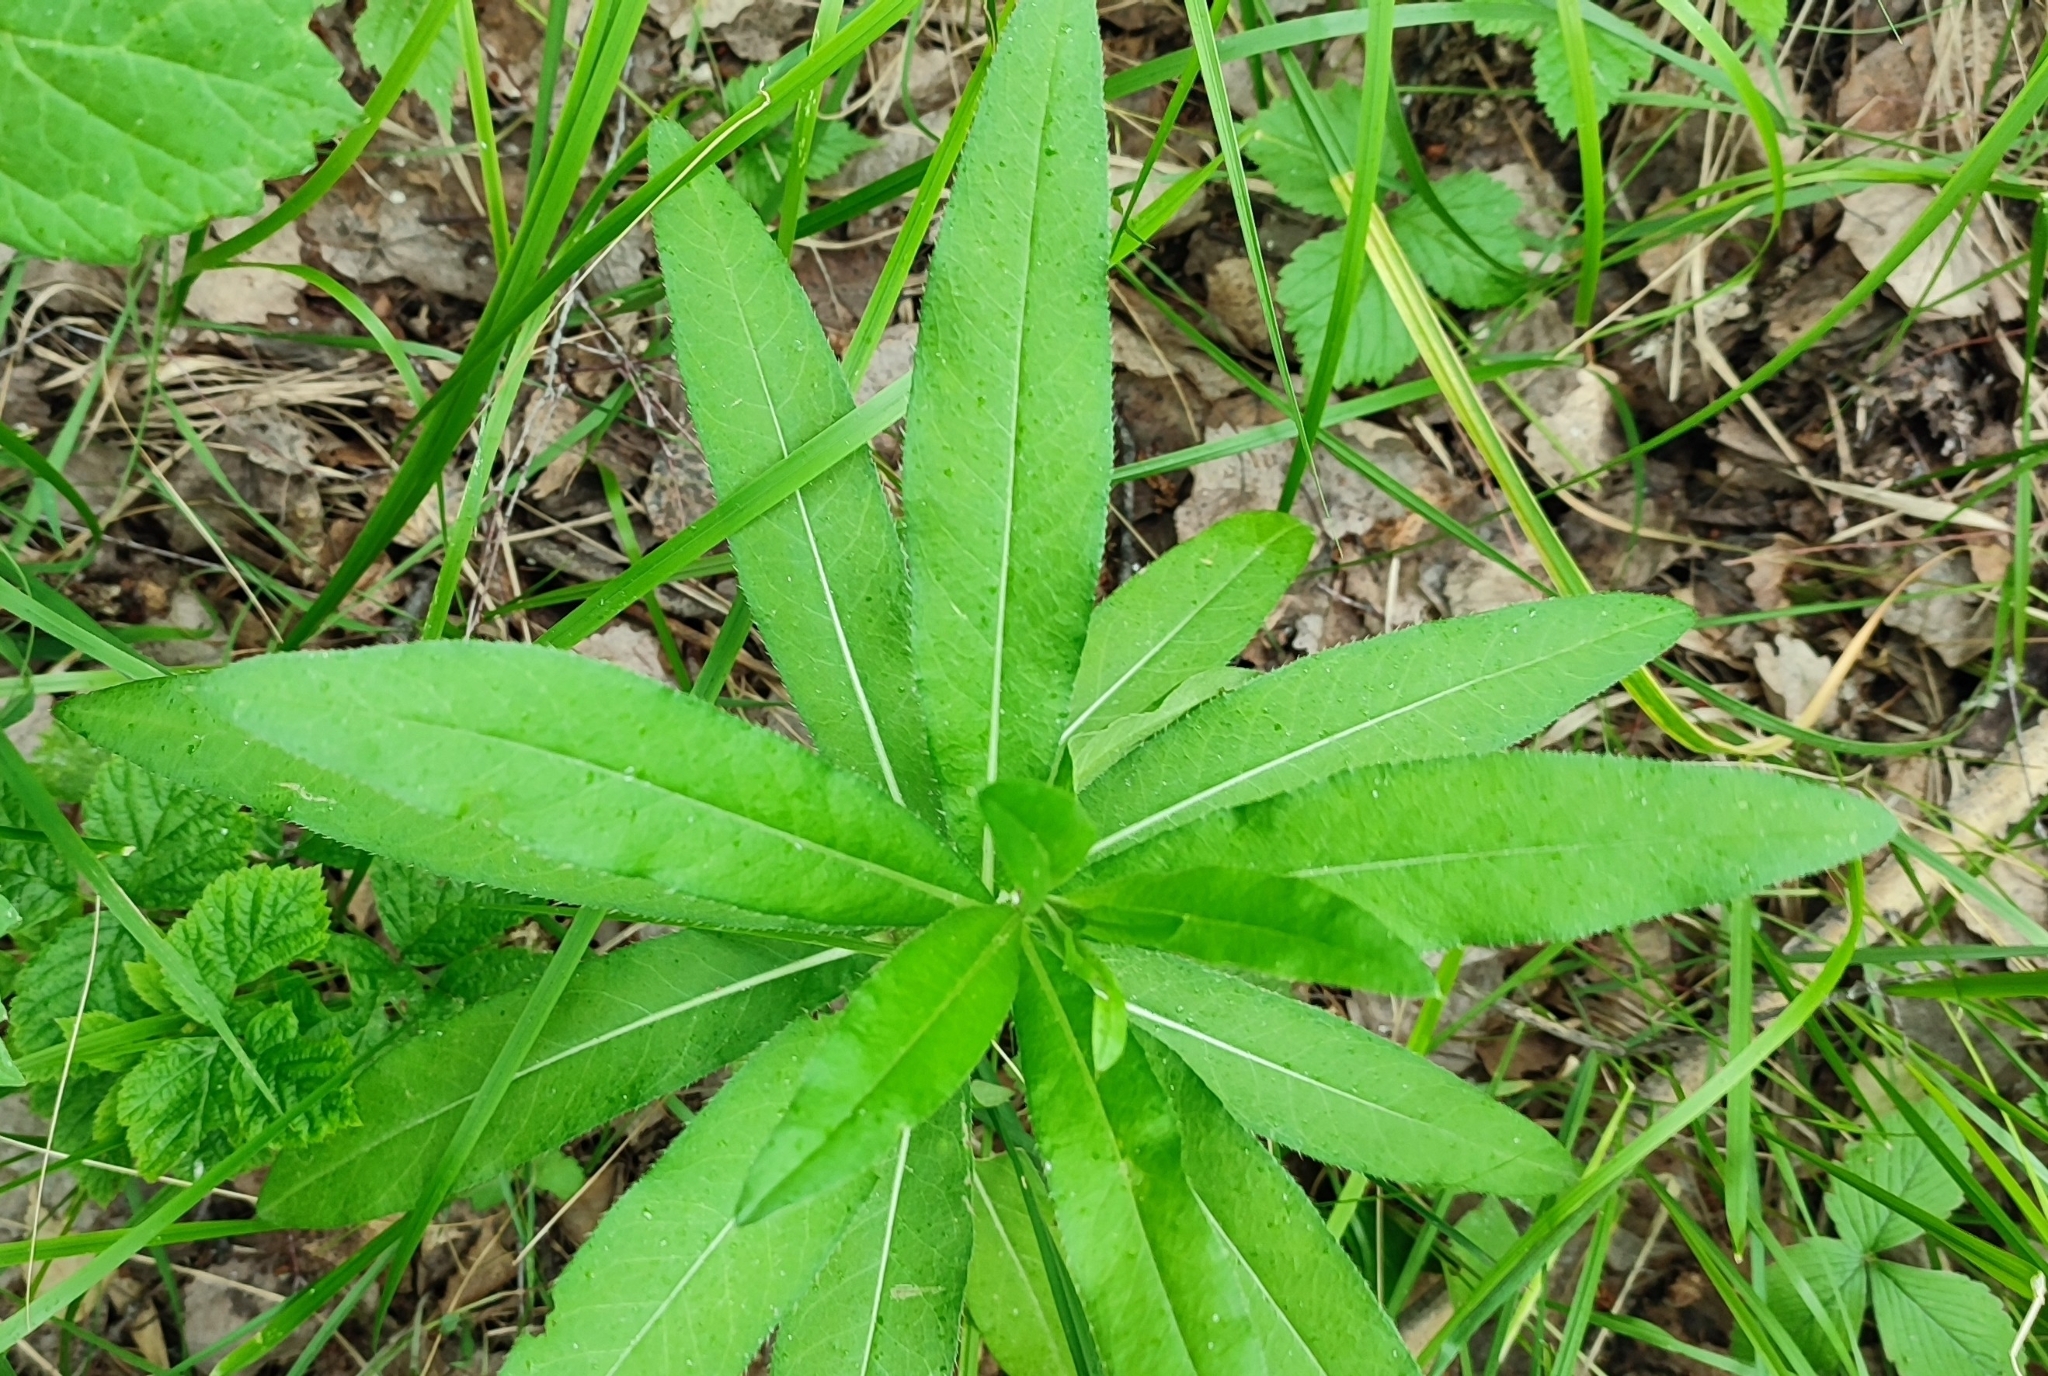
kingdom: Plantae
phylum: Tracheophyta
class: Magnoliopsida
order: Asterales
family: Asteraceae
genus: Cirsium
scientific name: Cirsium arvense
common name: Creeping thistle
